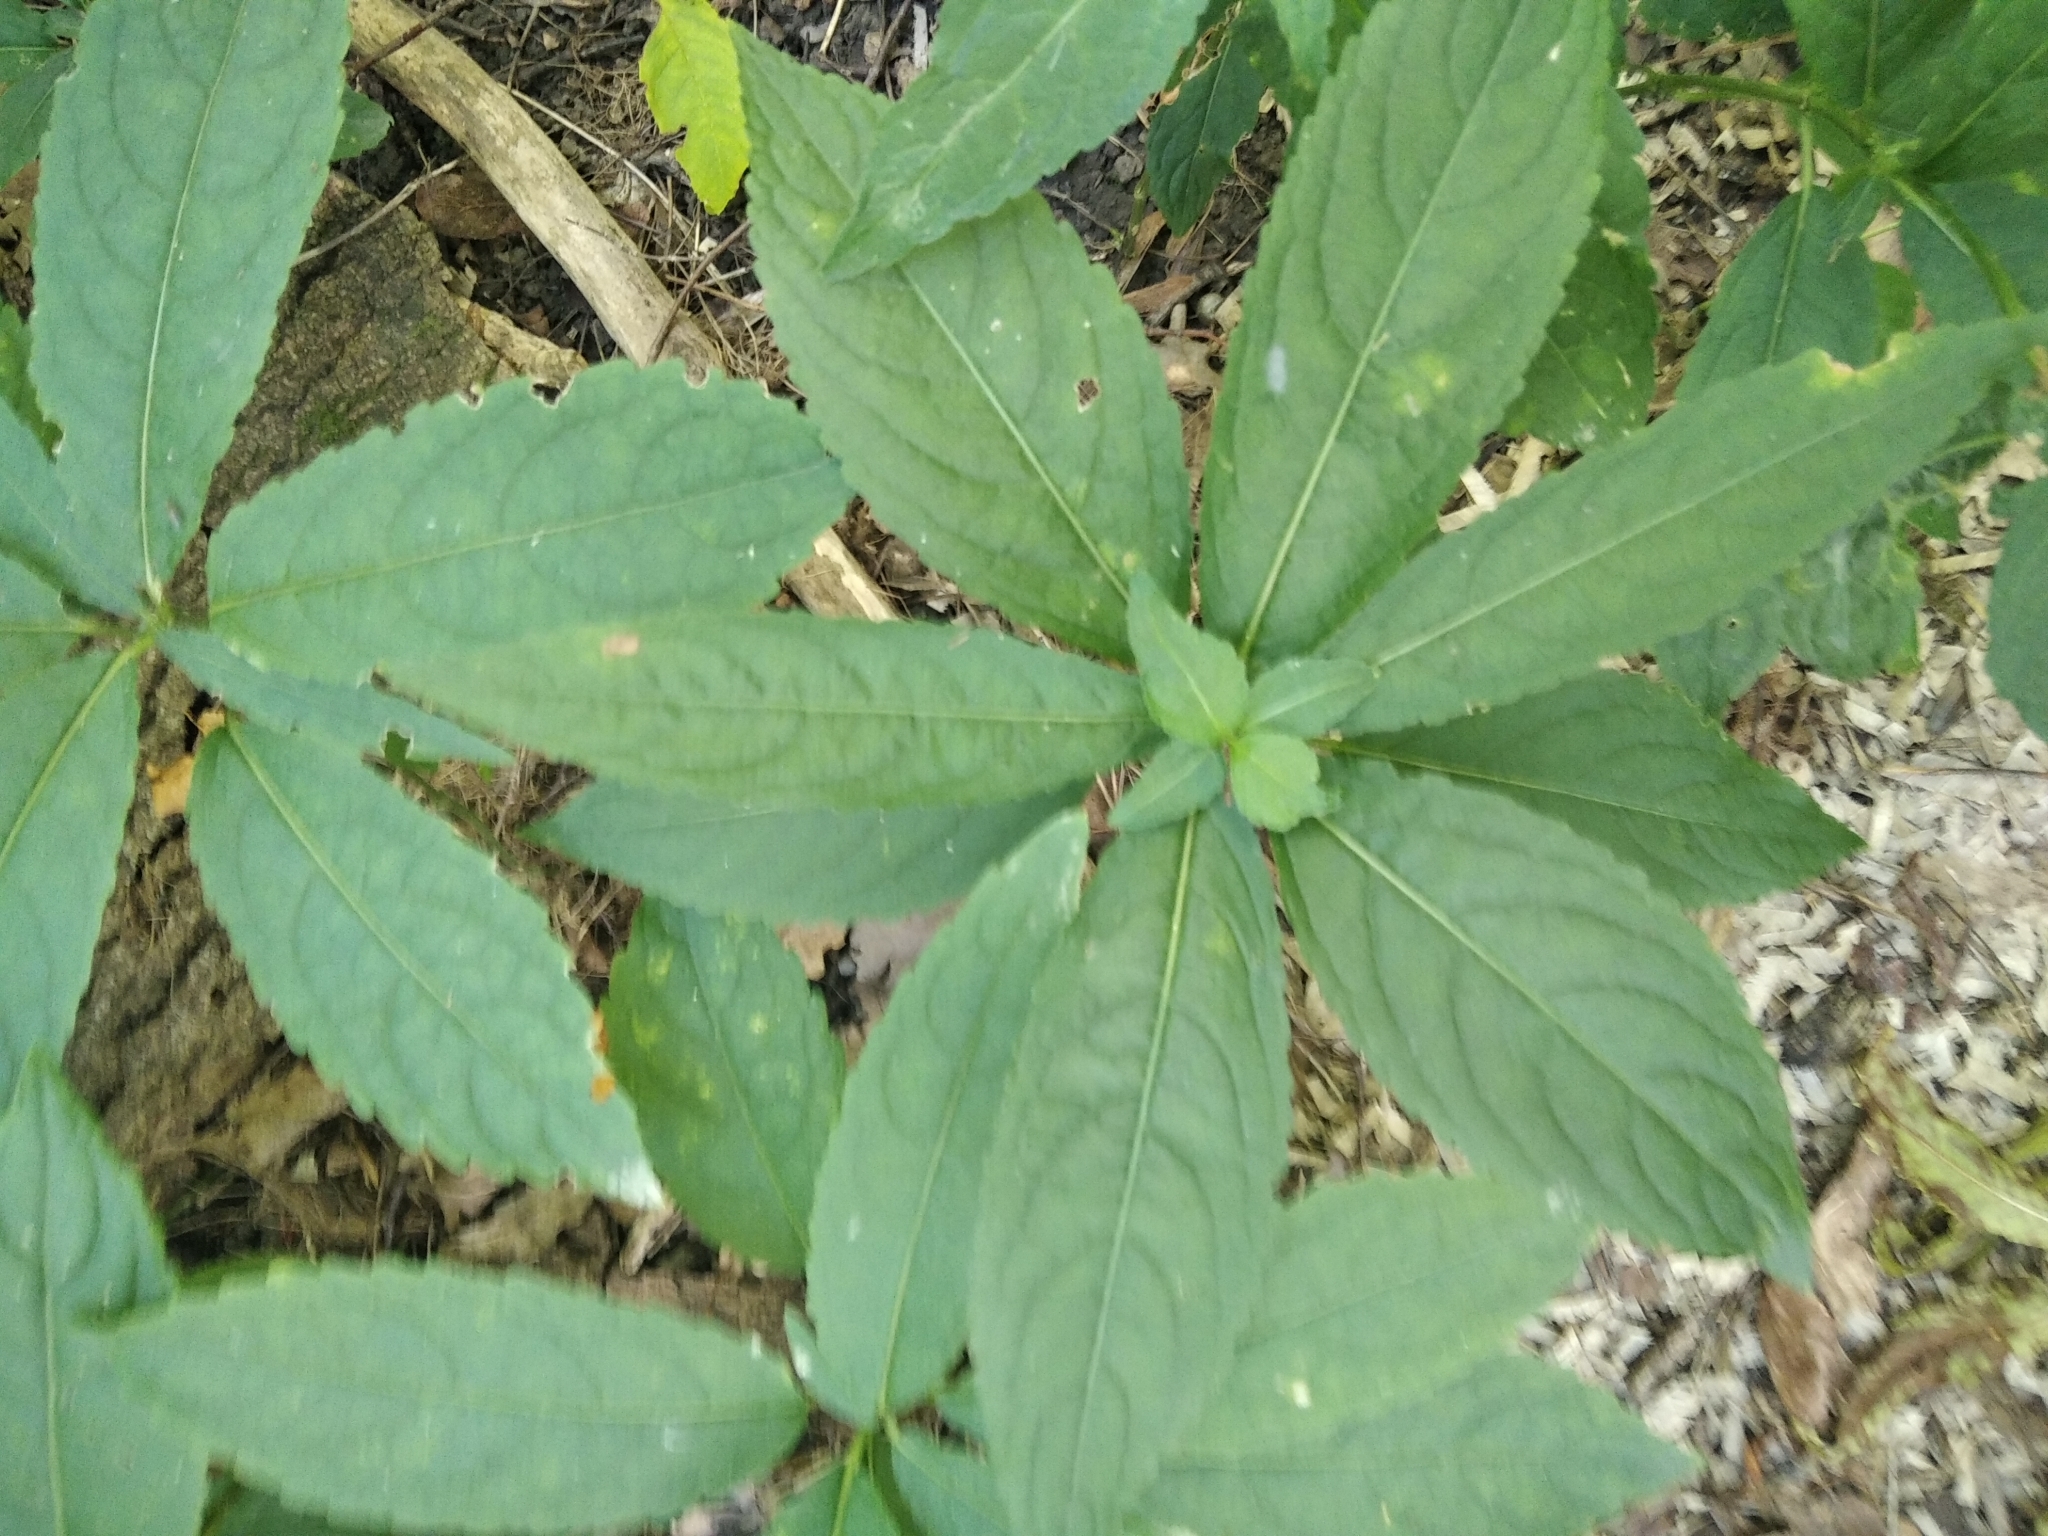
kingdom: Plantae
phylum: Tracheophyta
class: Magnoliopsida
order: Malpighiales
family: Euphorbiaceae
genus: Mercurialis
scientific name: Mercurialis perennis
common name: Dog mercury
